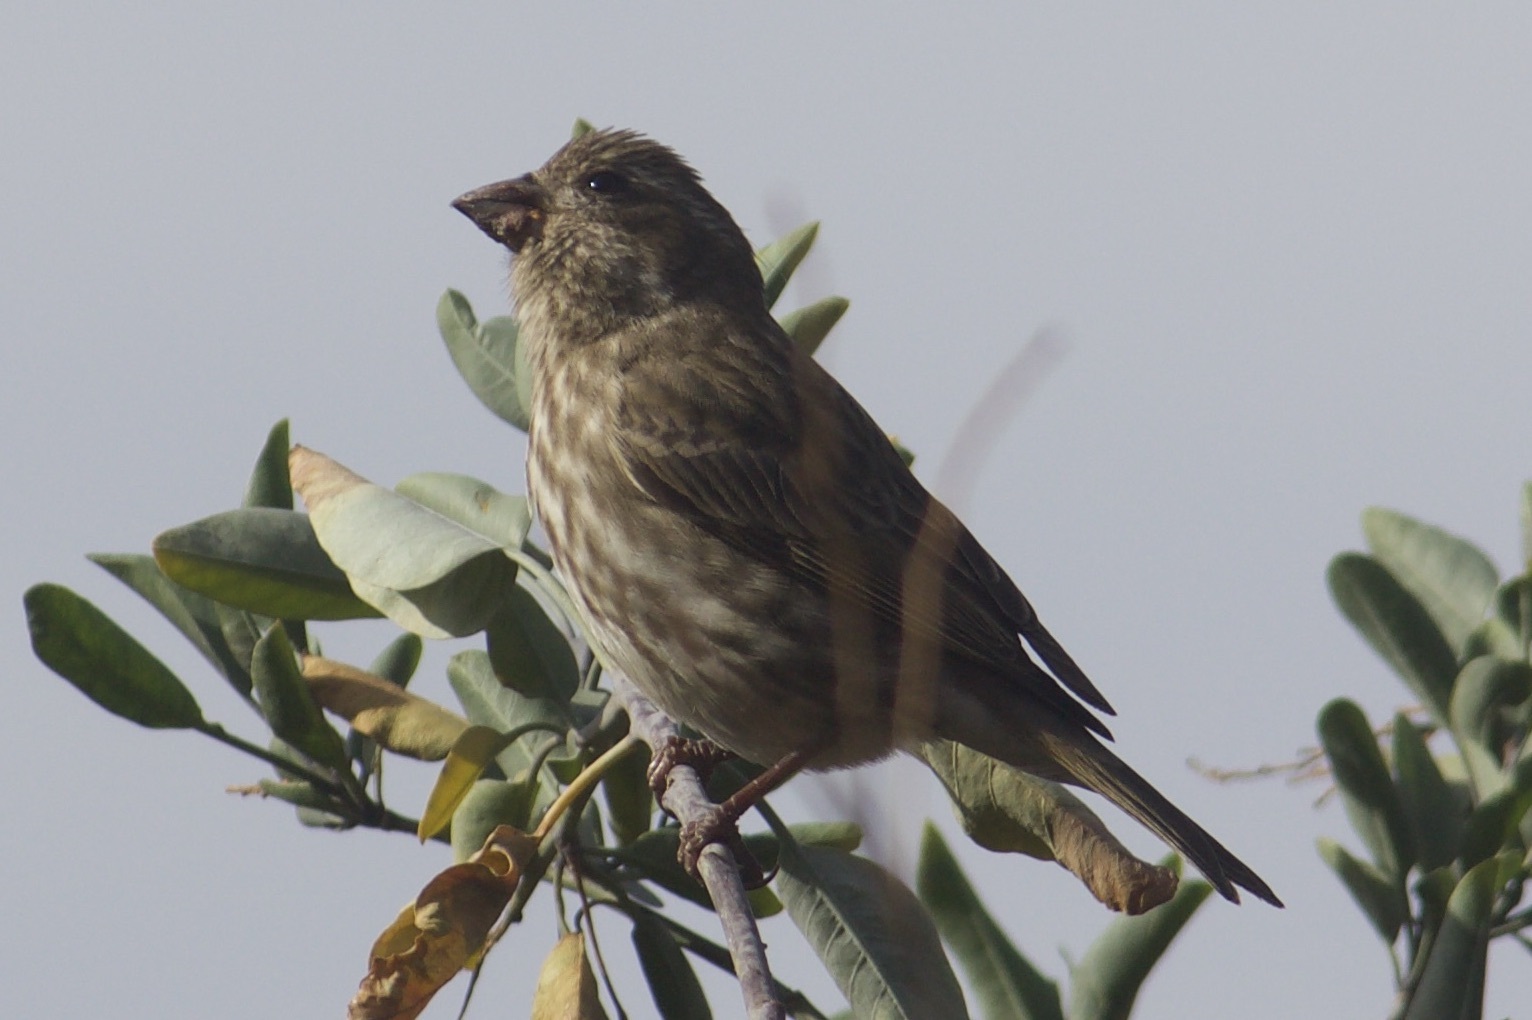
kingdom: Animalia
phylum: Chordata
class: Aves
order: Passeriformes
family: Fringillidae
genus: Haemorhous
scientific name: Haemorhous purpureus
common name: Purple finch
